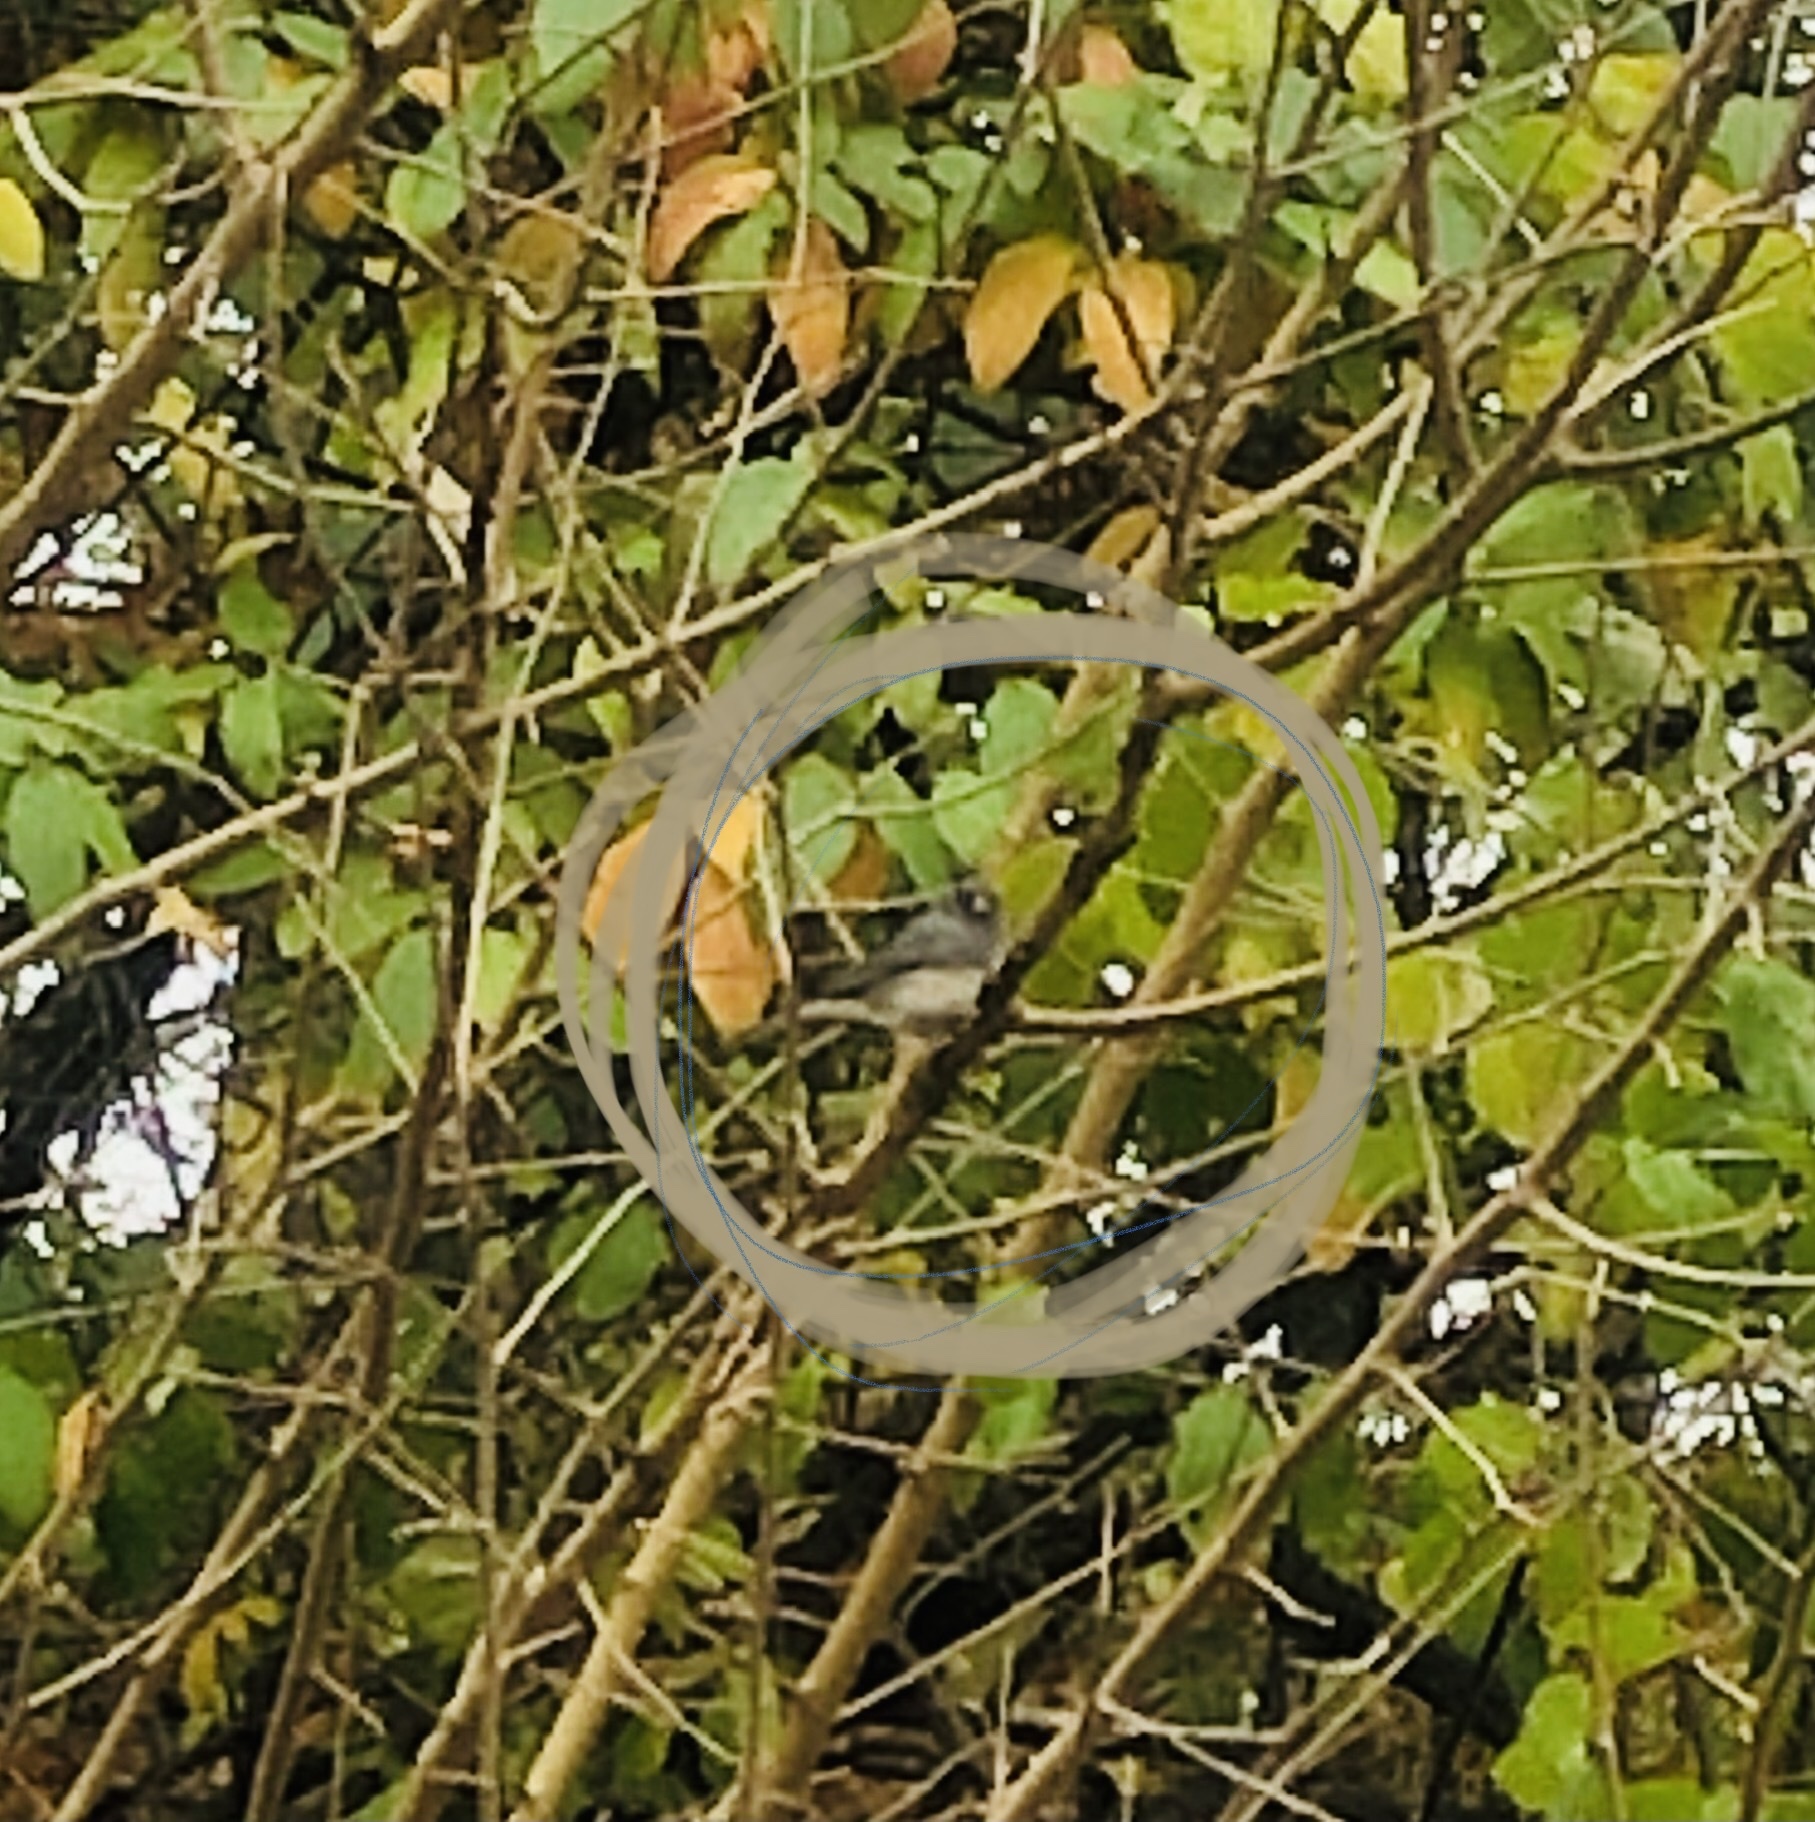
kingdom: Animalia
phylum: Chordata
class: Aves
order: Passeriformes
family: Passerellidae
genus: Junco
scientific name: Junco hyemalis
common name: Dark-eyed junco
